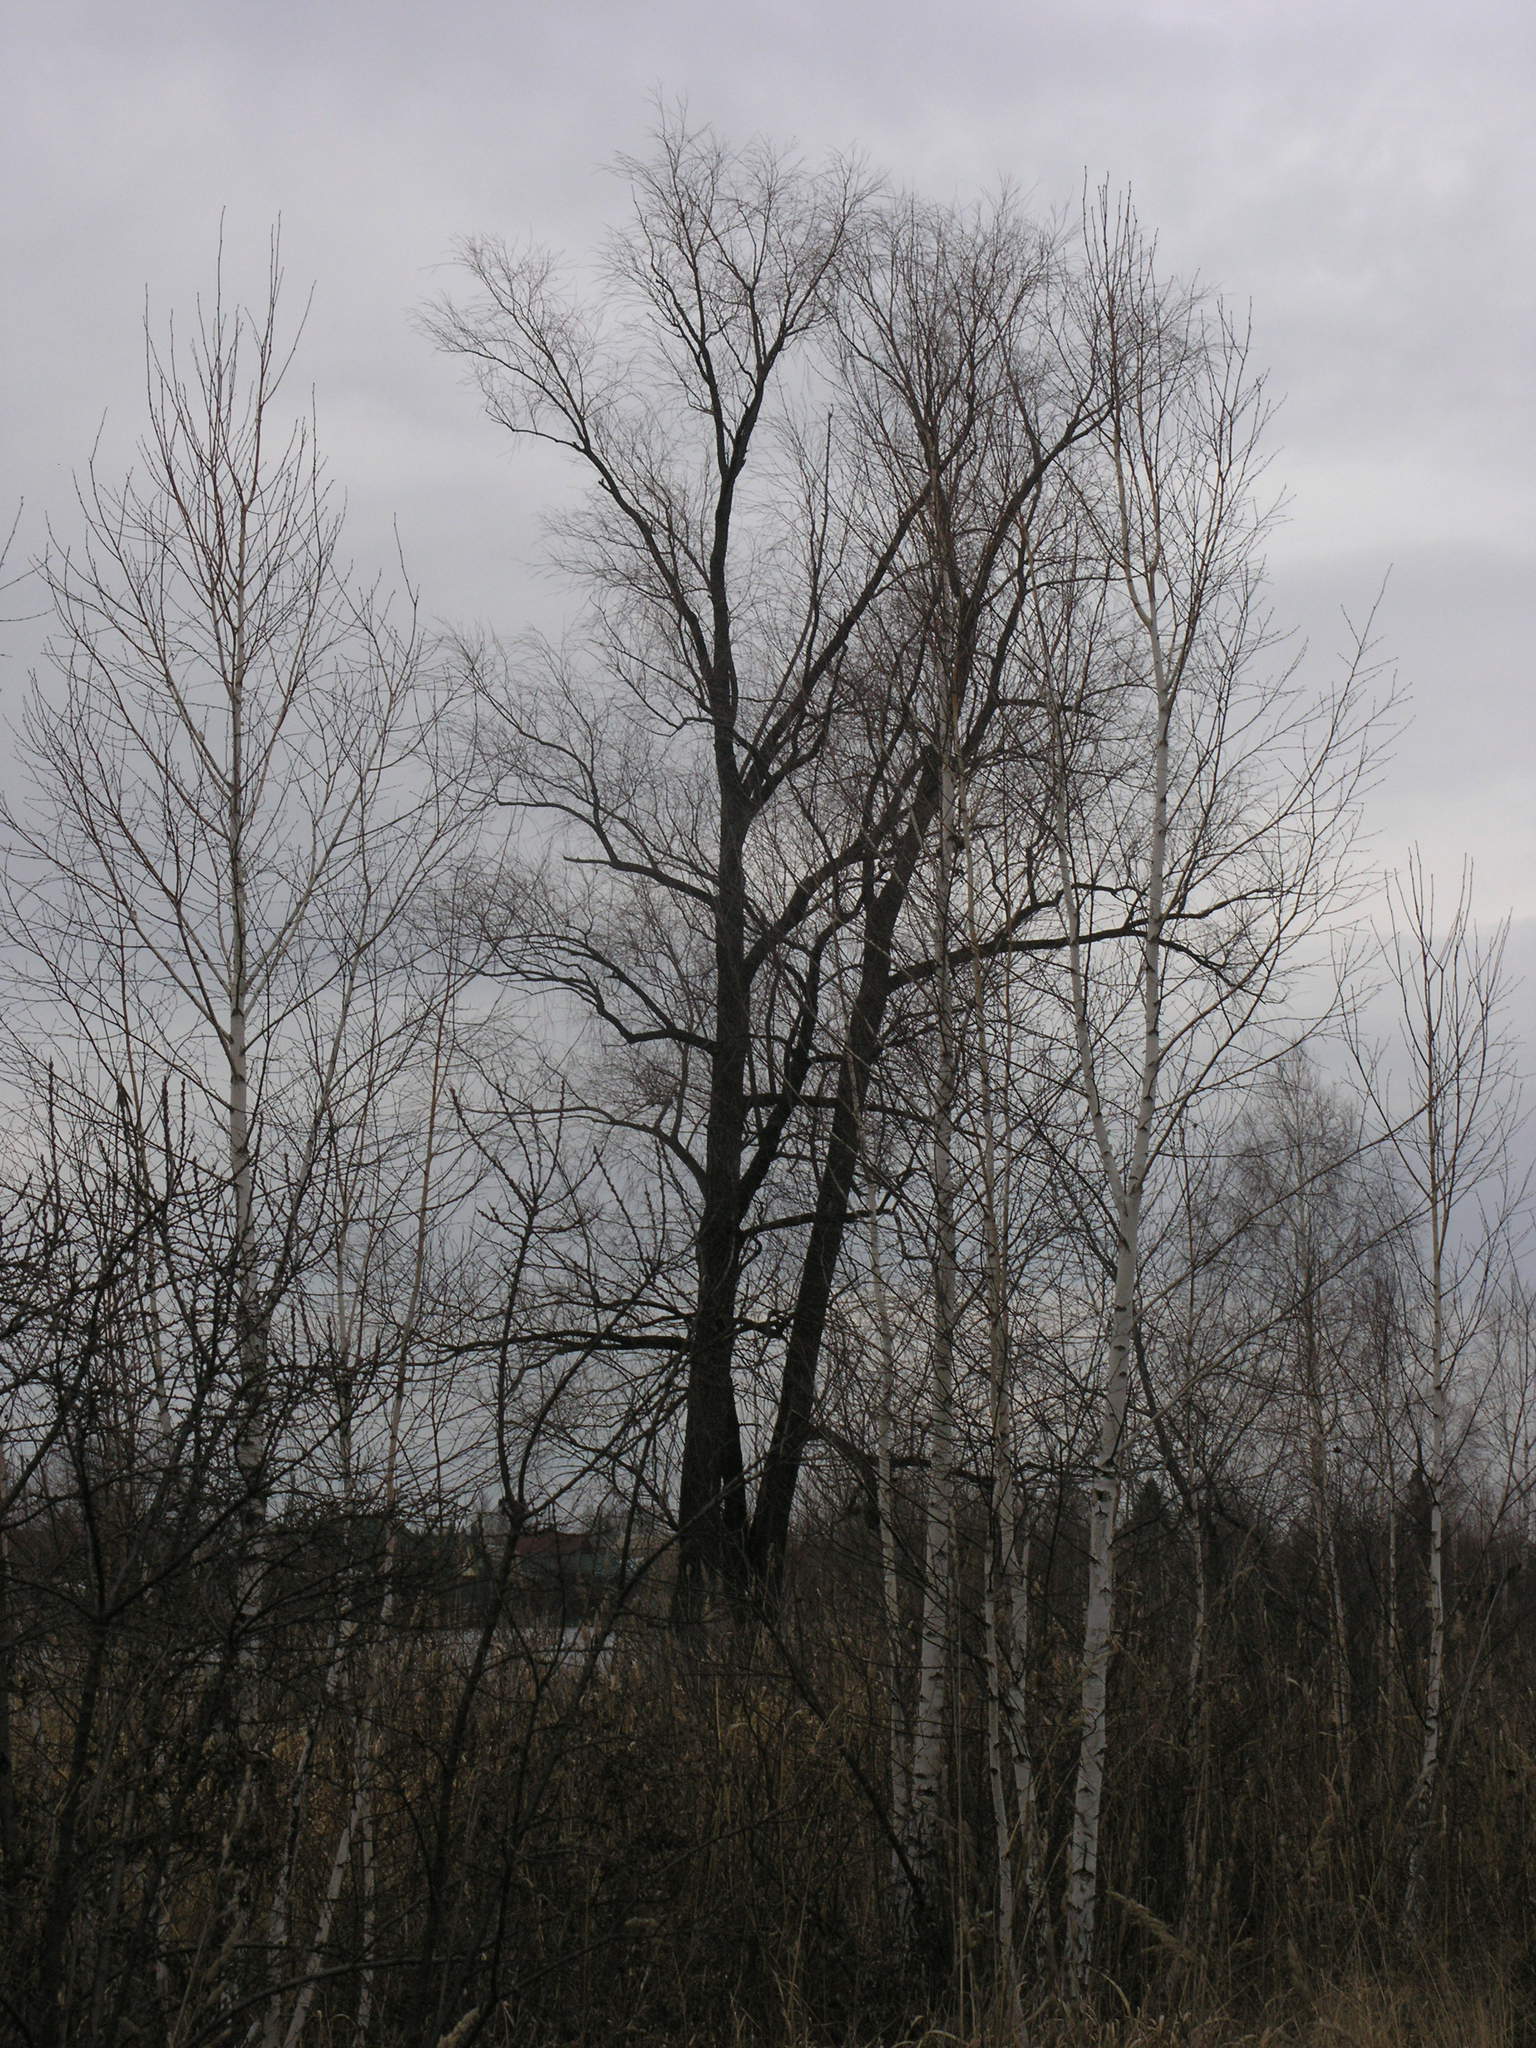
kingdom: Plantae
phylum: Tracheophyta
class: Magnoliopsida
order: Malpighiales
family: Salicaceae
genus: Salix
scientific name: Salix alba
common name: White willow
